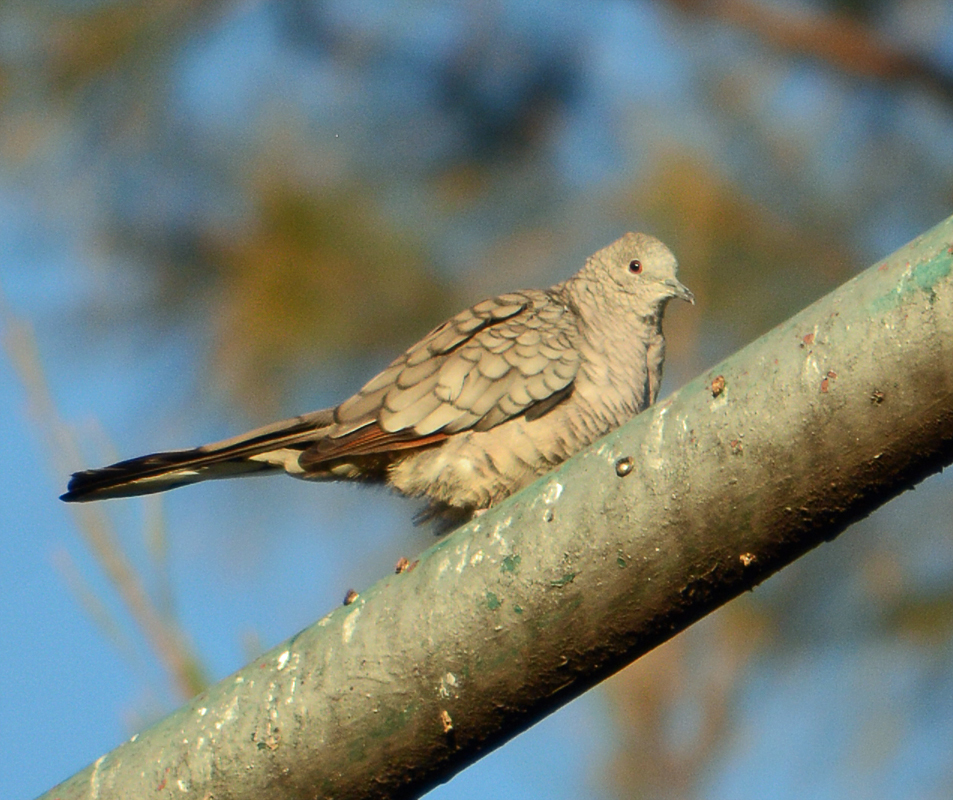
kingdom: Animalia
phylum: Chordata
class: Aves
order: Columbiformes
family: Columbidae
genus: Columbina
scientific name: Columbina inca
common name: Inca dove
